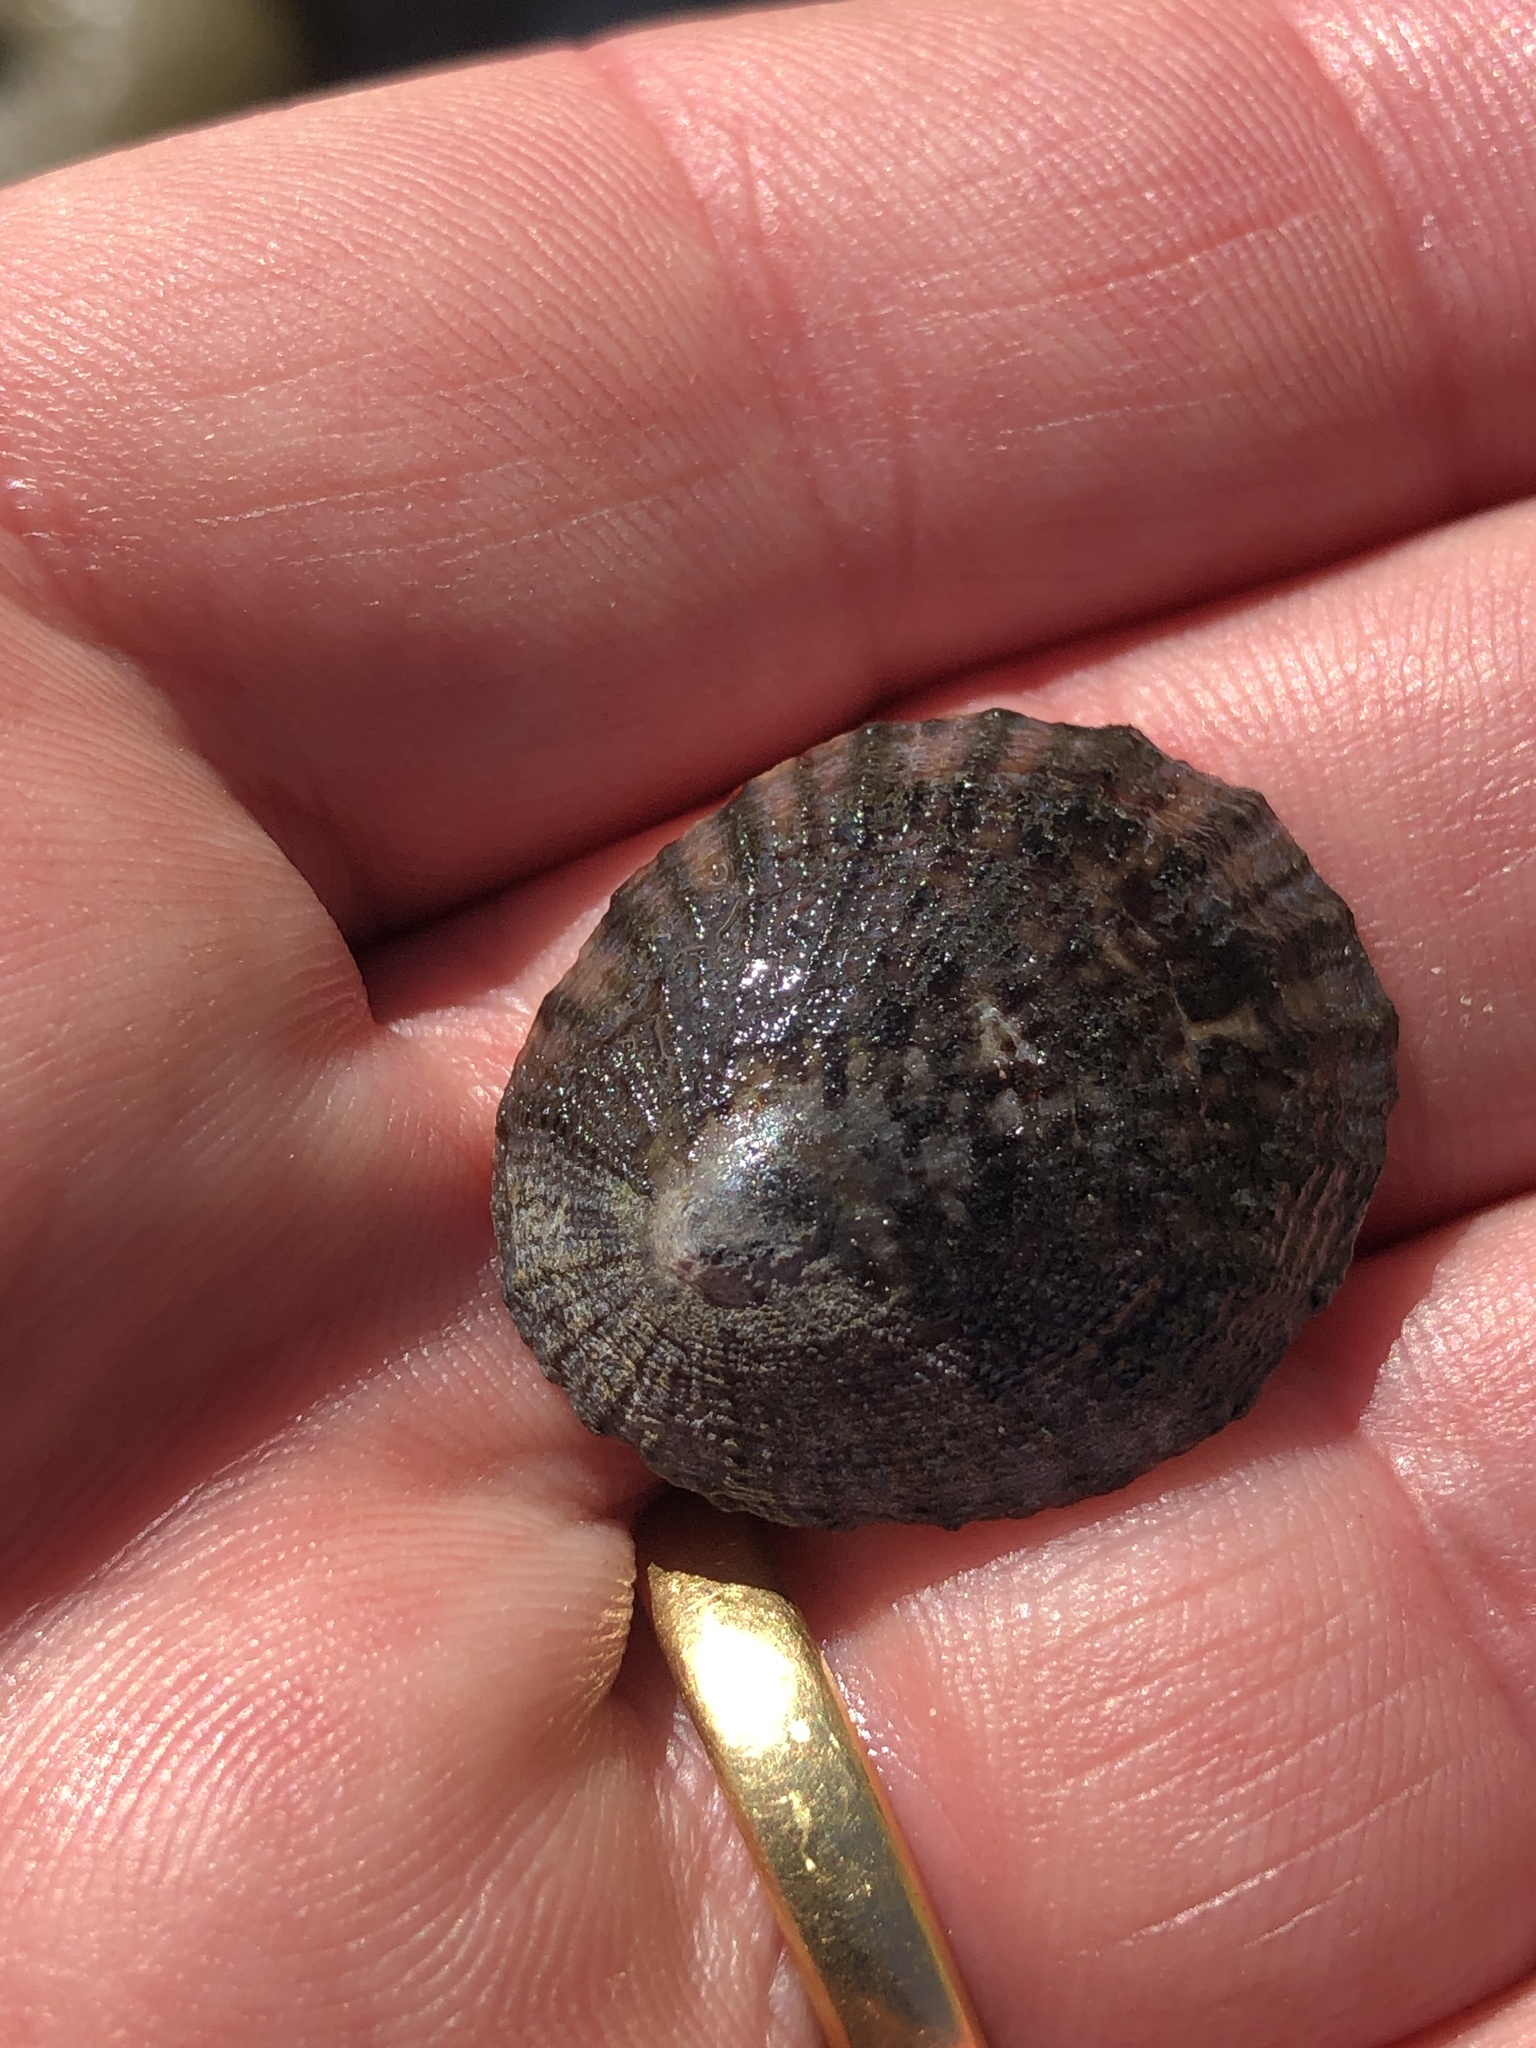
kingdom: Animalia
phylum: Mollusca
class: Gastropoda
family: Nacellidae
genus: Cellana
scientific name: Cellana radians
